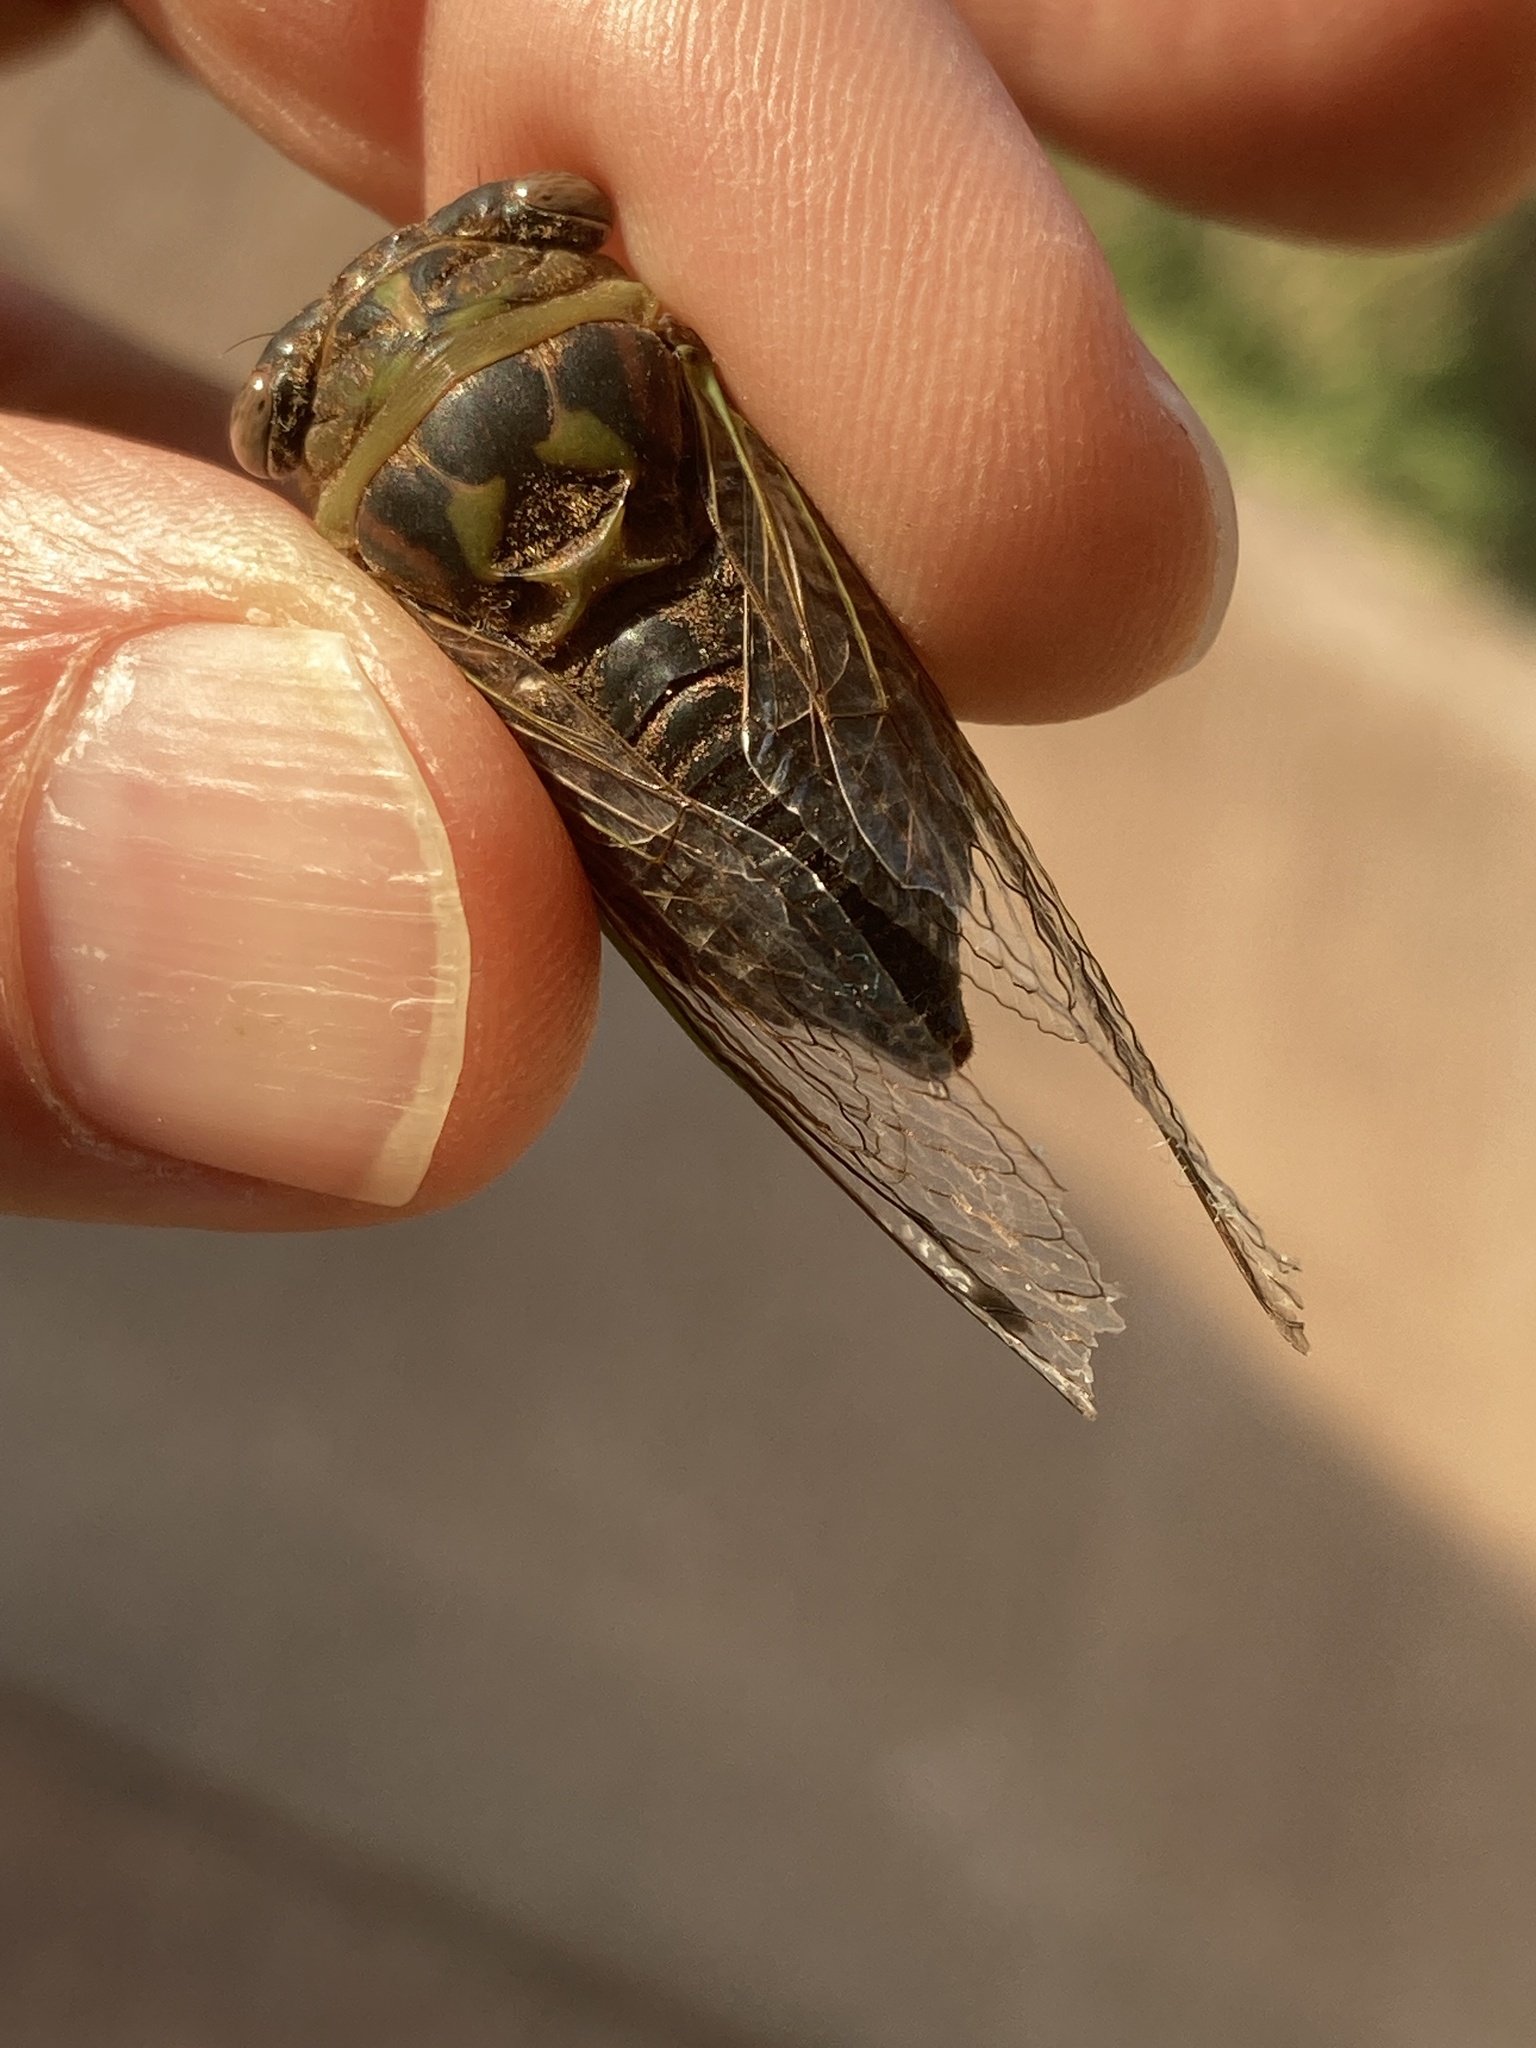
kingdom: Animalia
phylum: Arthropoda
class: Insecta
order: Hemiptera
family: Cicadidae
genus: Neotibicen
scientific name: Neotibicen aurifer
